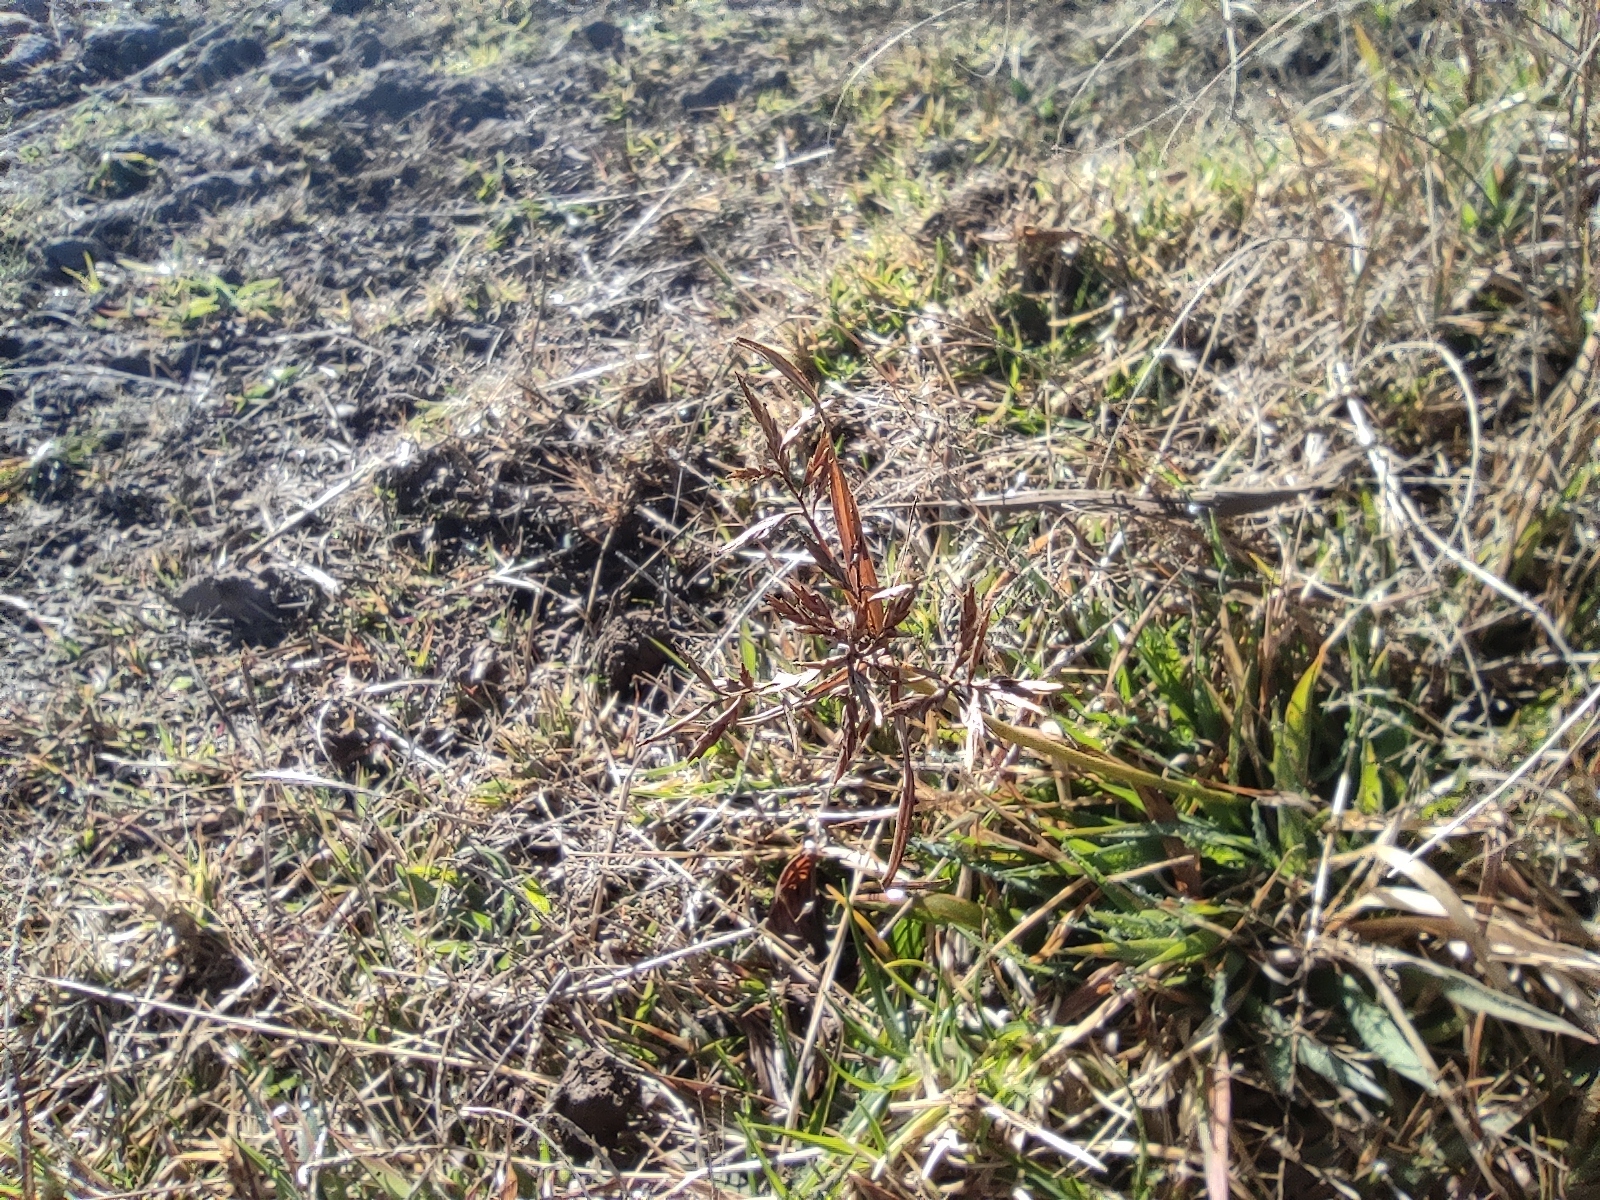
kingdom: Plantae
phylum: Tracheophyta
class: Liliopsida
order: Poales
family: Cyperaceae
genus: Cyperus
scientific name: Cyperus intactus
